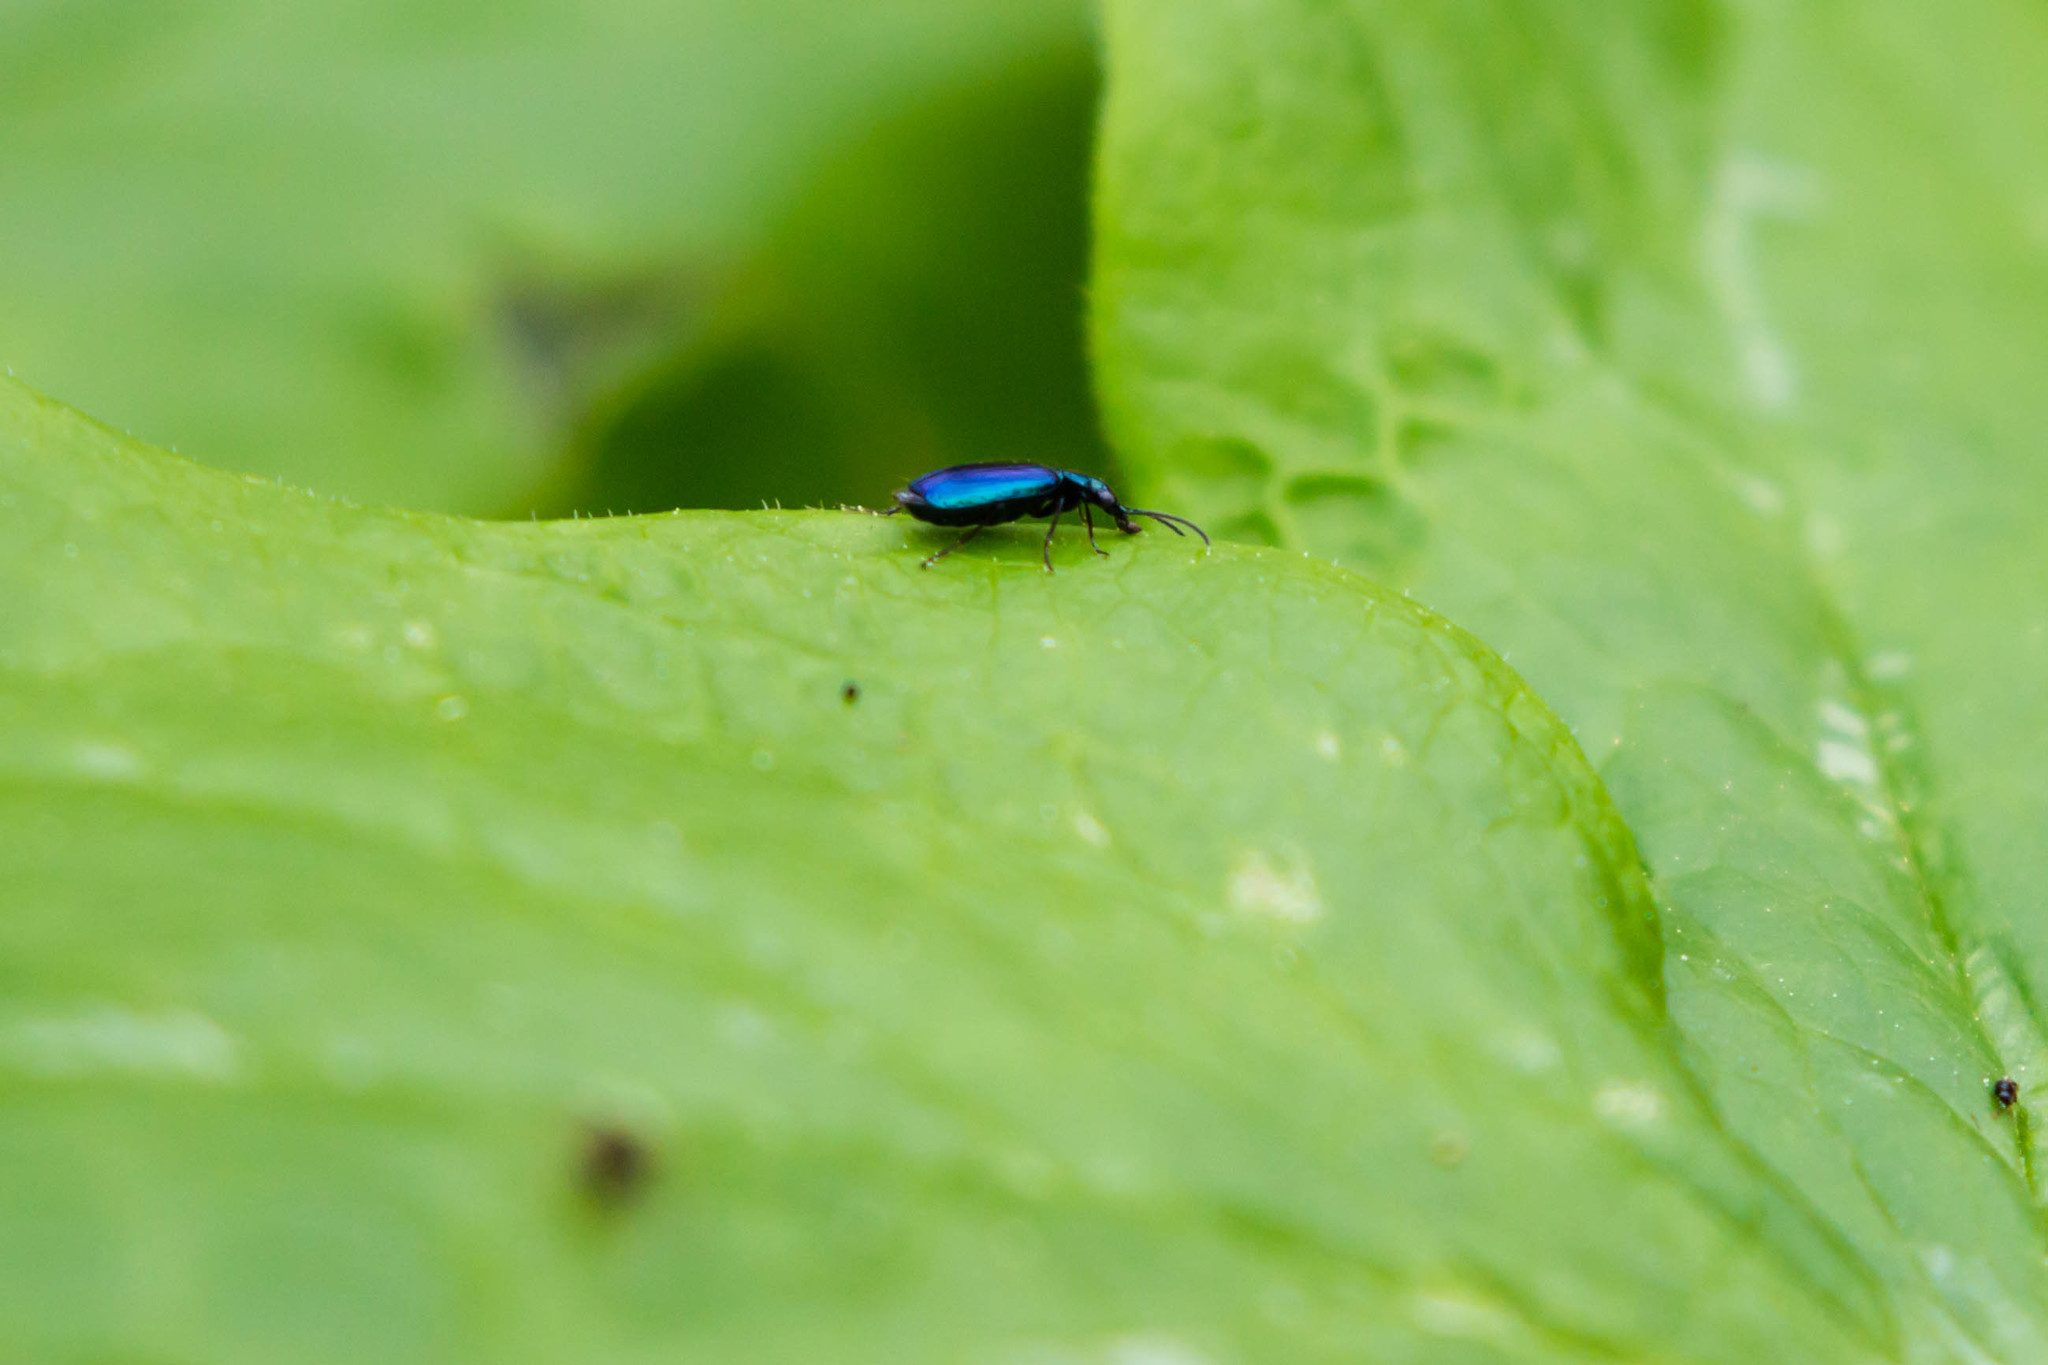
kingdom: Animalia
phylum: Arthropoda
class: Insecta
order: Coleoptera
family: Carabidae
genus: Lebia
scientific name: Lebia viridis
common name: Flower lebia beetle
